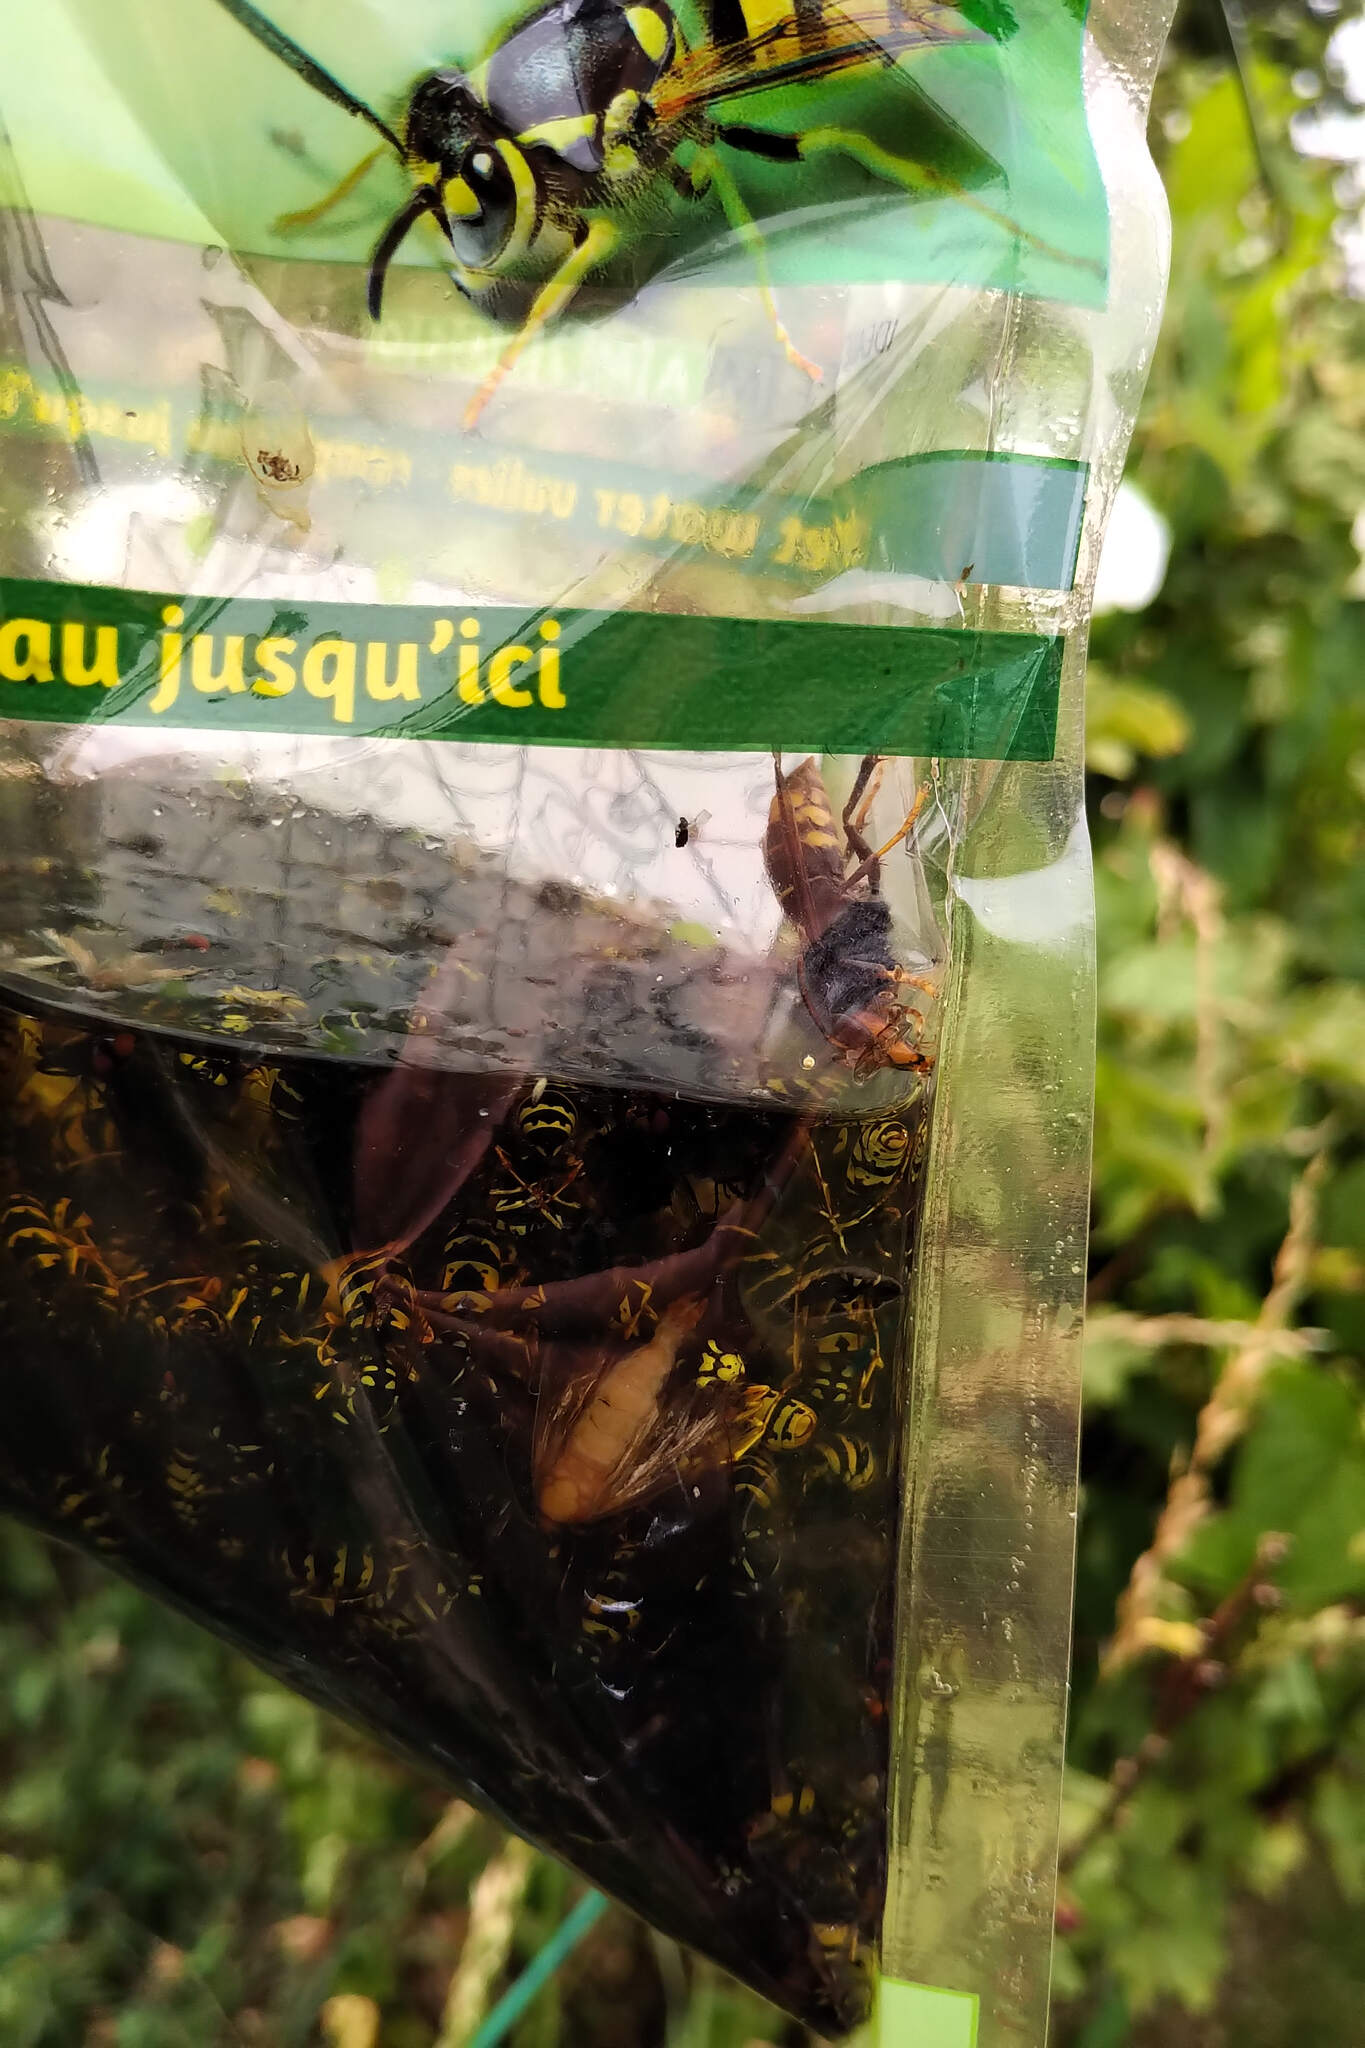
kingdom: Animalia
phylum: Arthropoda
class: Insecta
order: Hymenoptera
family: Vespidae
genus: Vespa
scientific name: Vespa velutina
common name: Asian hornet
